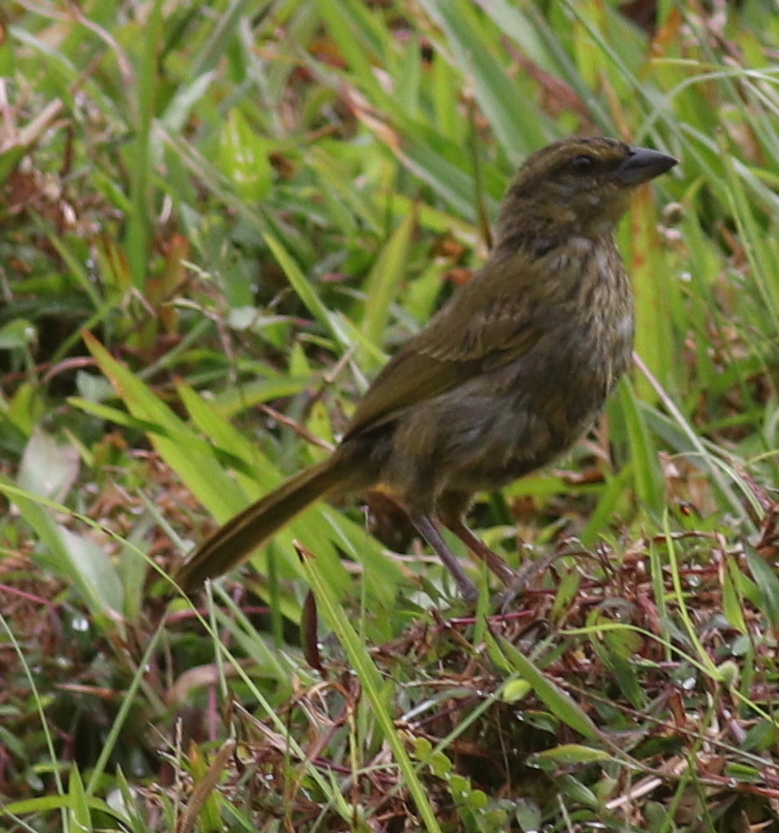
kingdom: Animalia
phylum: Chordata
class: Aves
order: Passeriformes
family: Passerellidae
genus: Arremonops
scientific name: Arremonops conirostris
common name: Black-striped sparrow
